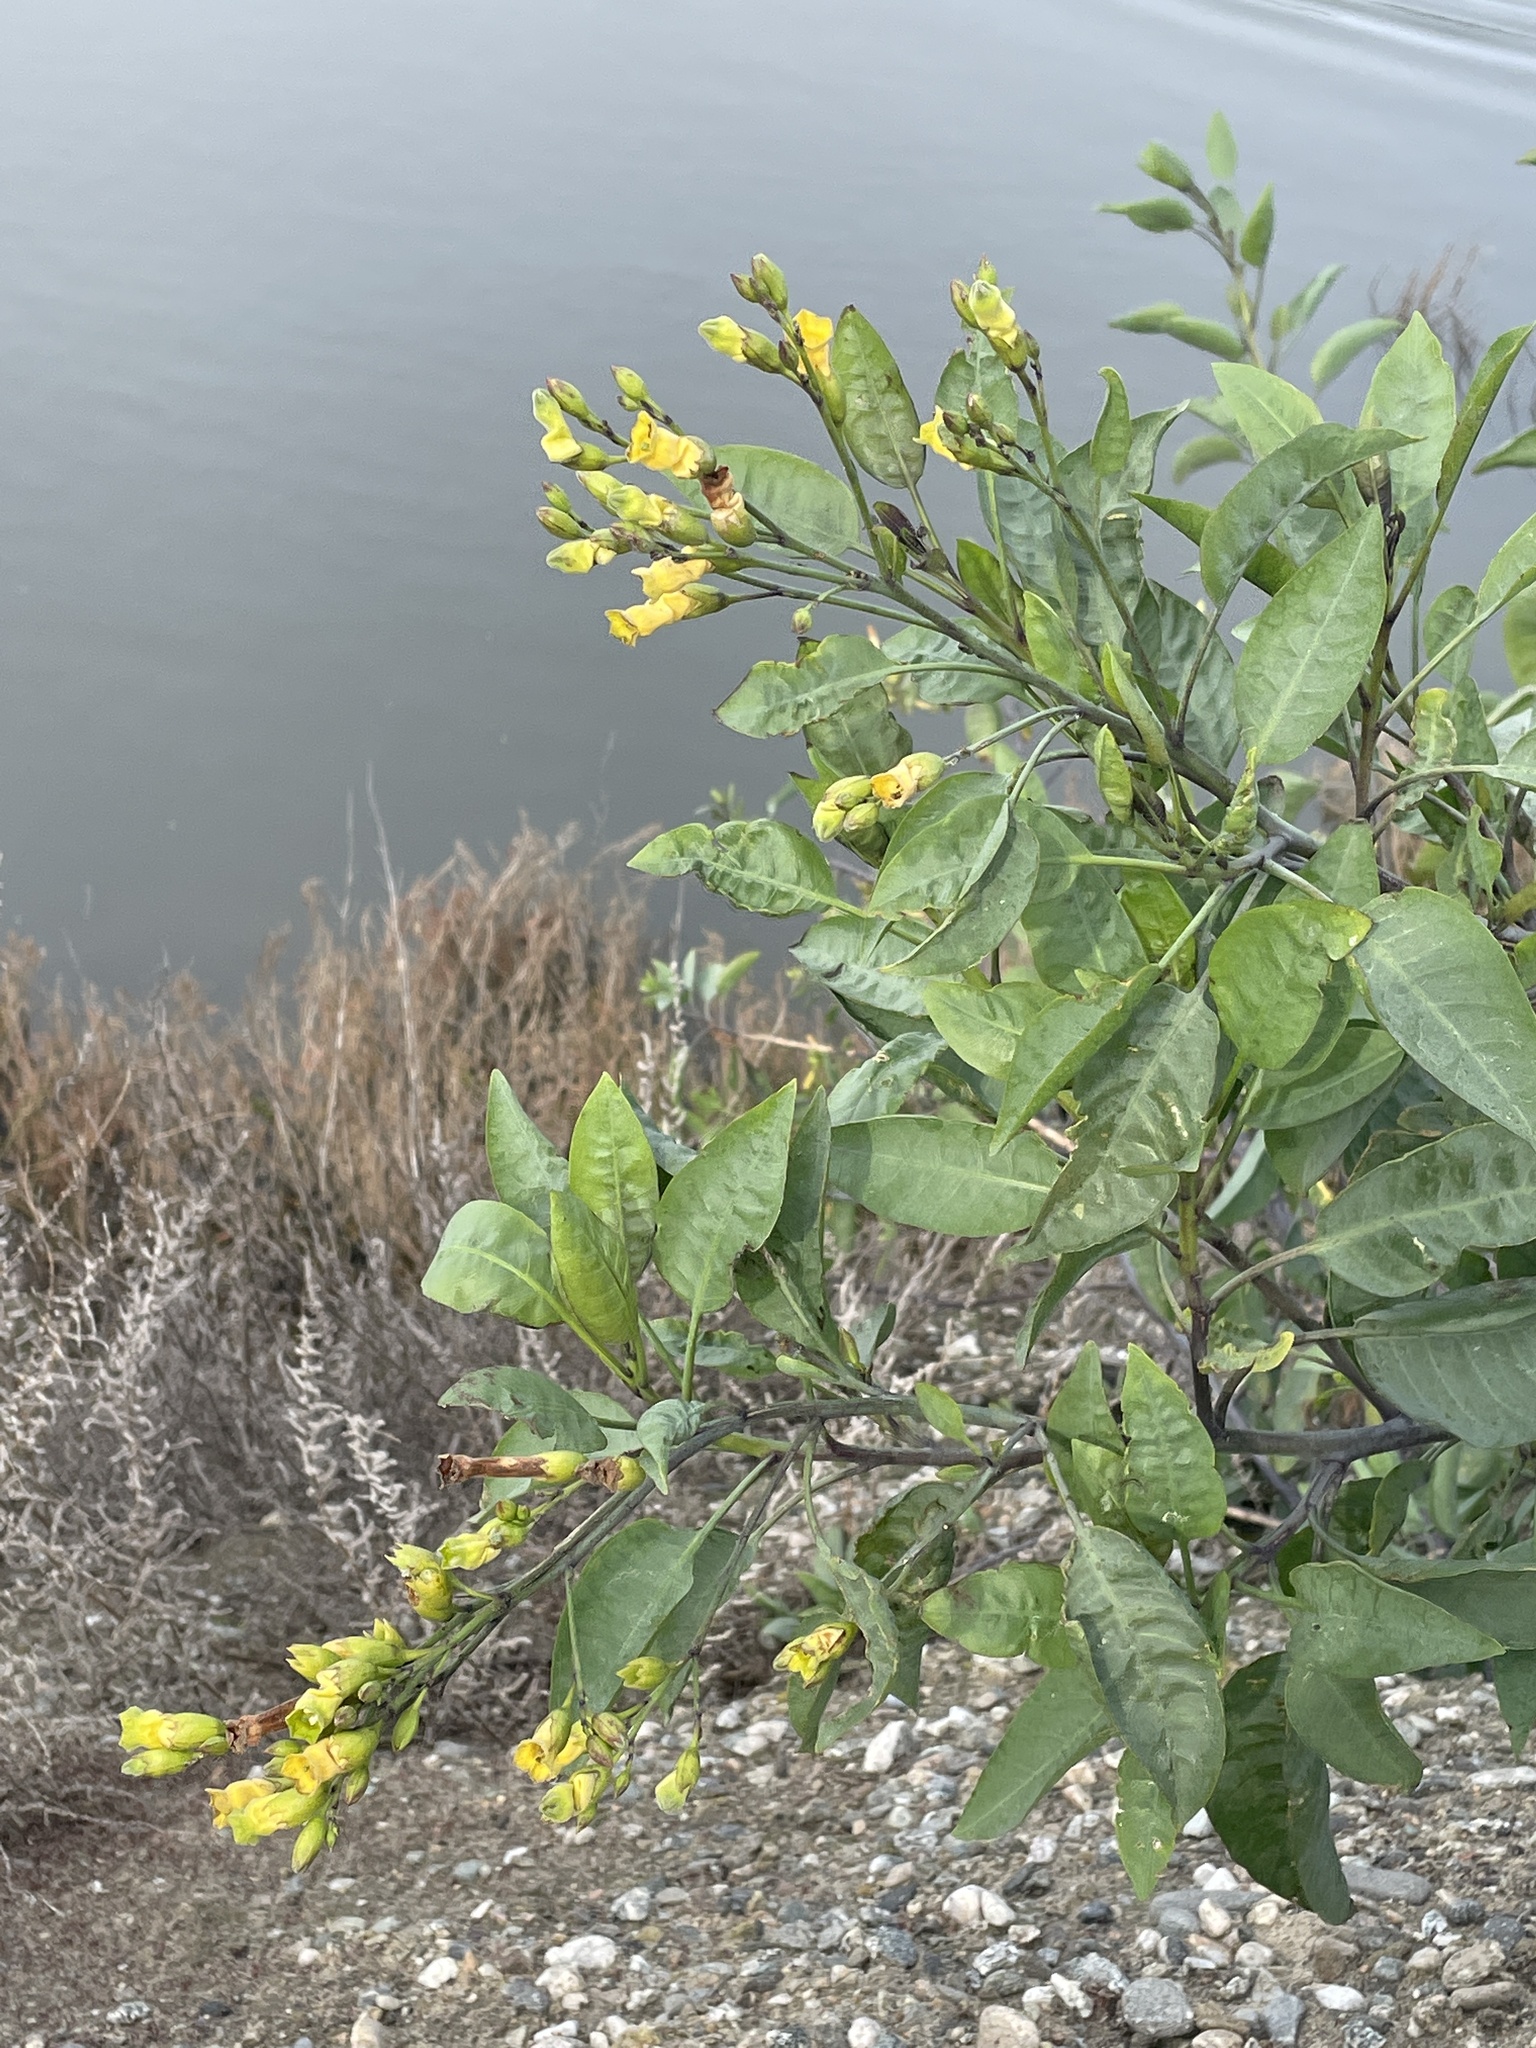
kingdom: Plantae
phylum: Tracheophyta
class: Magnoliopsida
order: Solanales
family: Solanaceae
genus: Nicotiana
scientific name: Nicotiana glauca
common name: Tree tobacco
